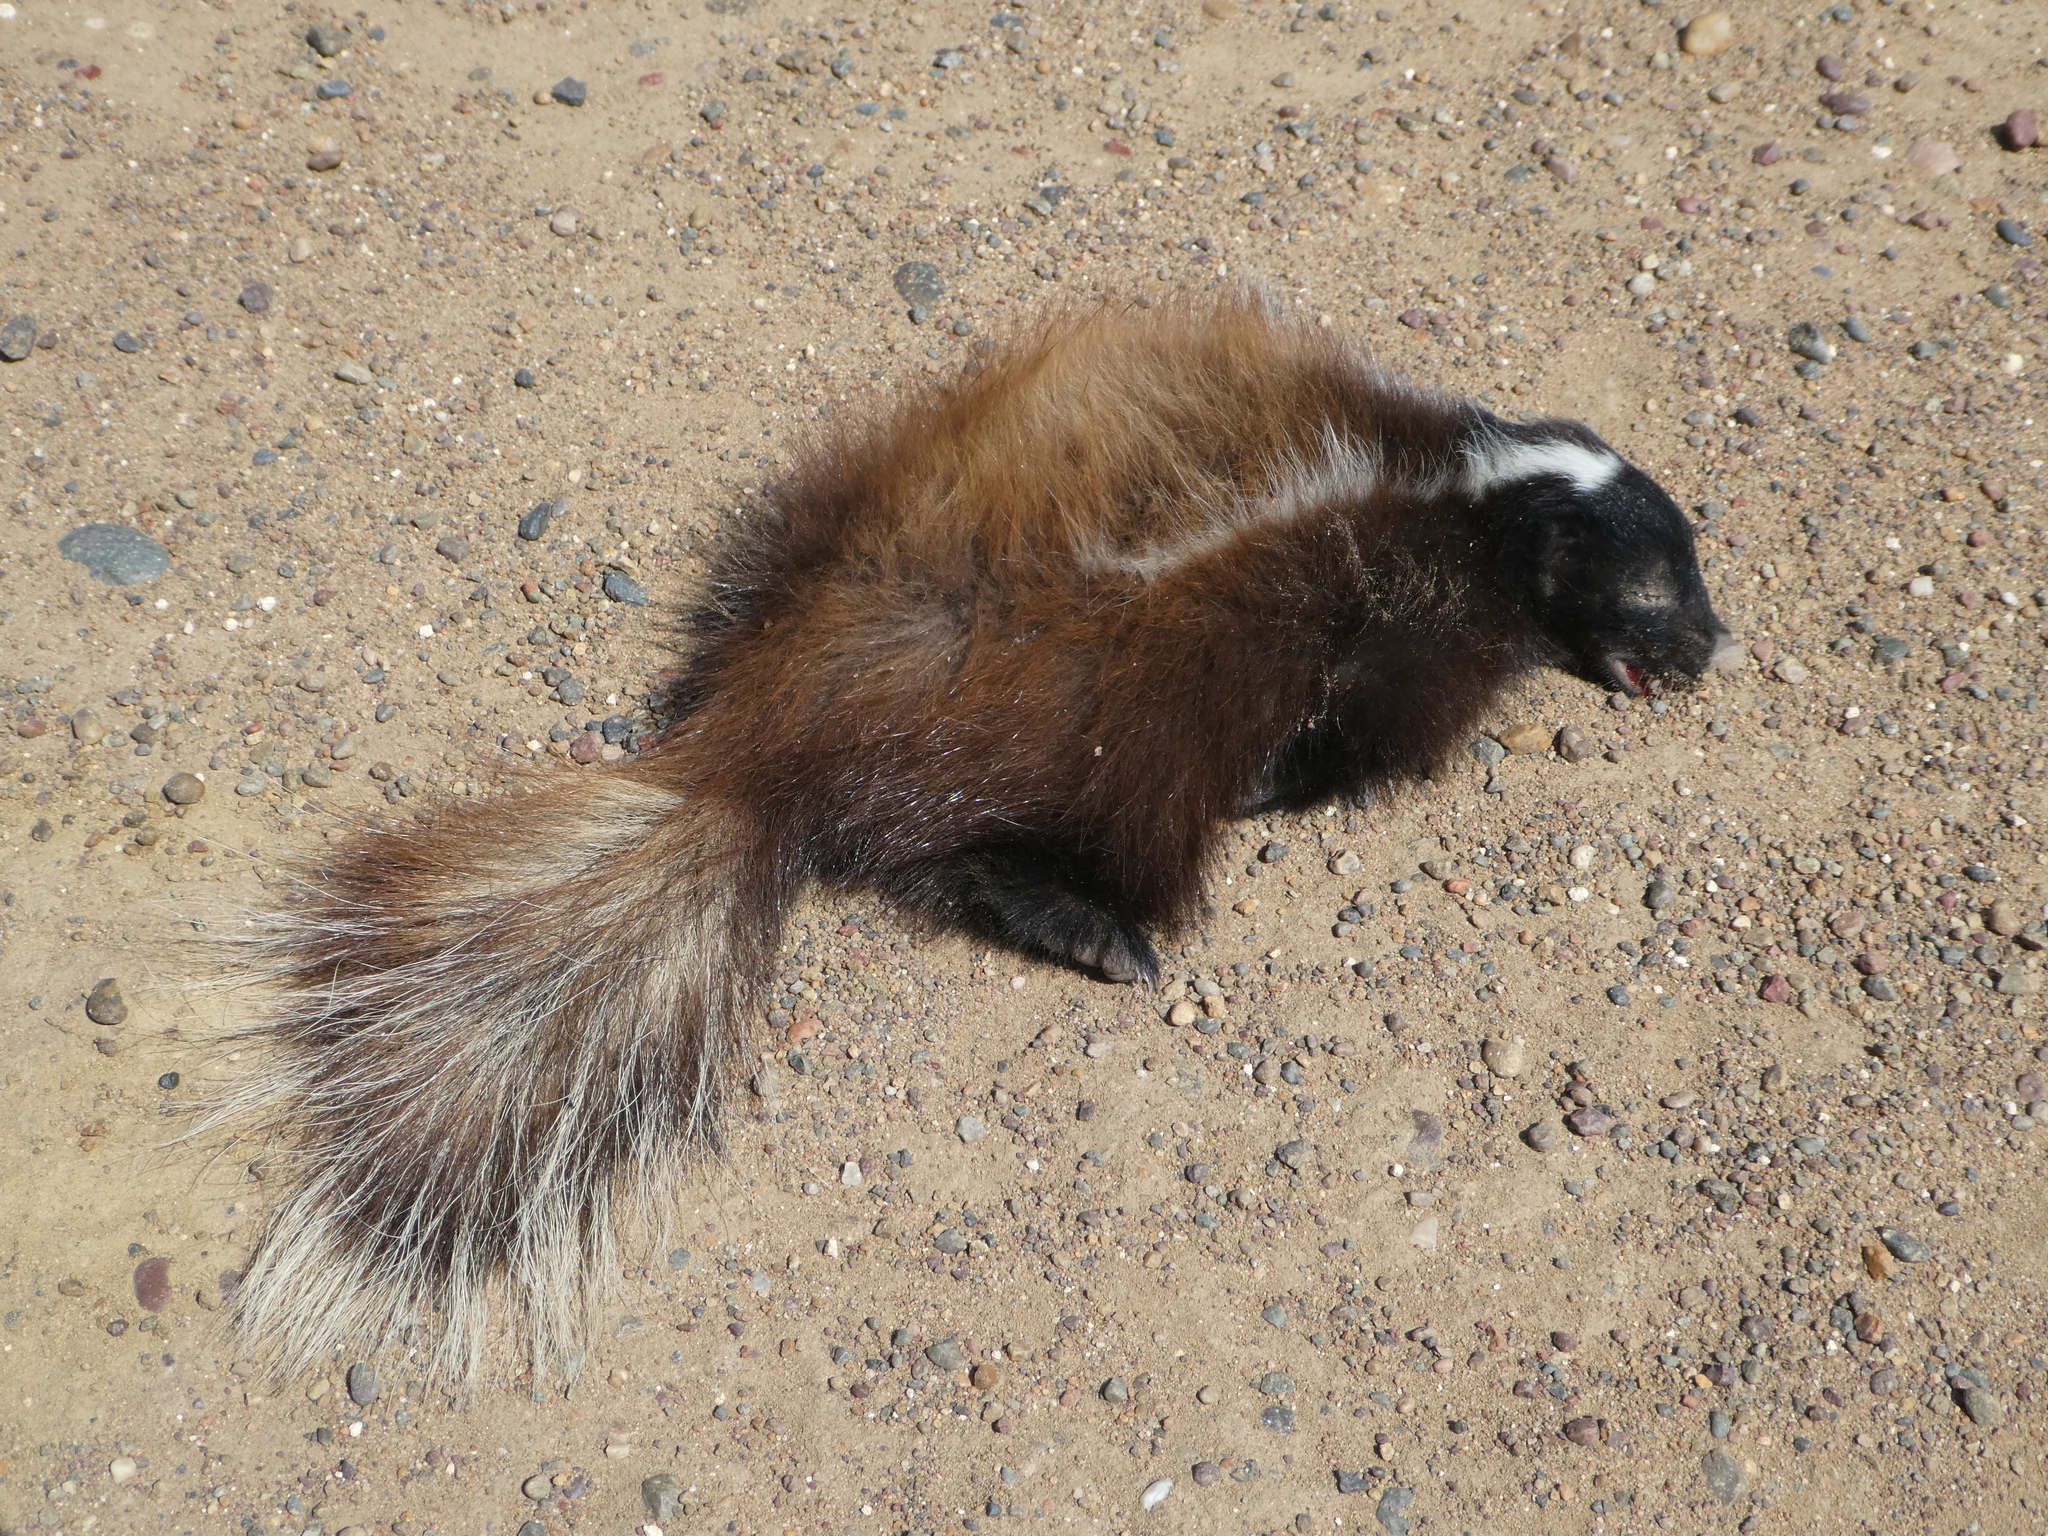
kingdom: Animalia
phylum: Chordata
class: Mammalia
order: Carnivora
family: Mephitidae
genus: Conepatus
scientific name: Conepatus chinga
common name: Molina's hog-nosed skunk
